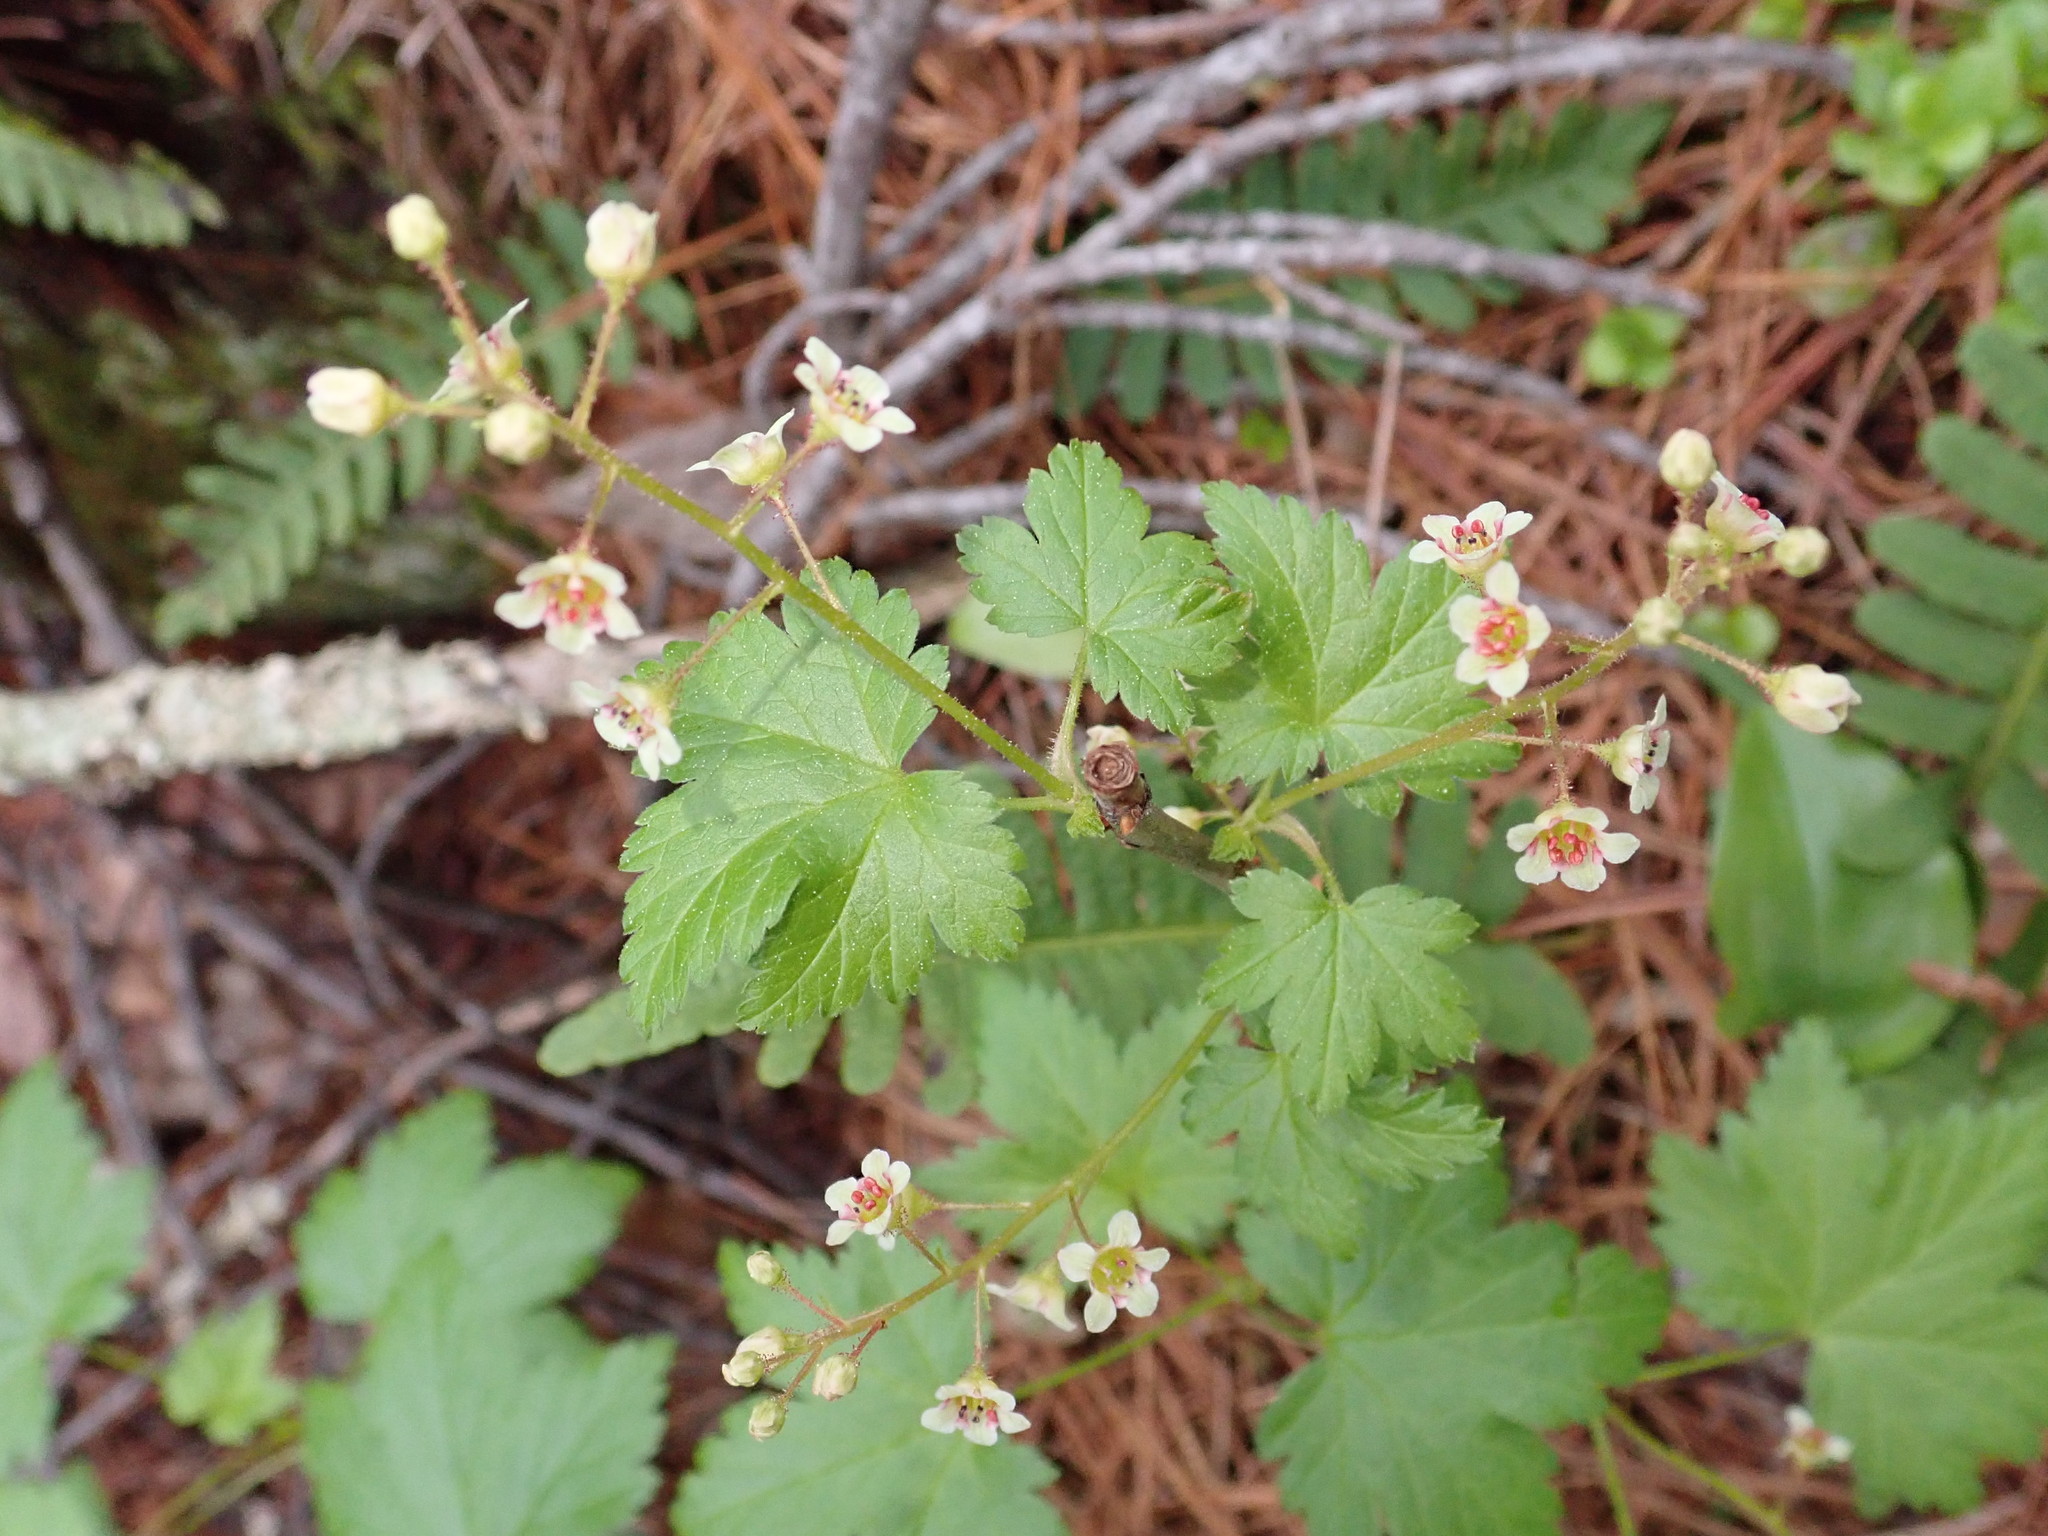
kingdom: Plantae
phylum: Tracheophyta
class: Magnoliopsida
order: Saxifragales
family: Grossulariaceae
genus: Ribes
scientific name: Ribes glandulosum
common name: Skunk currant
